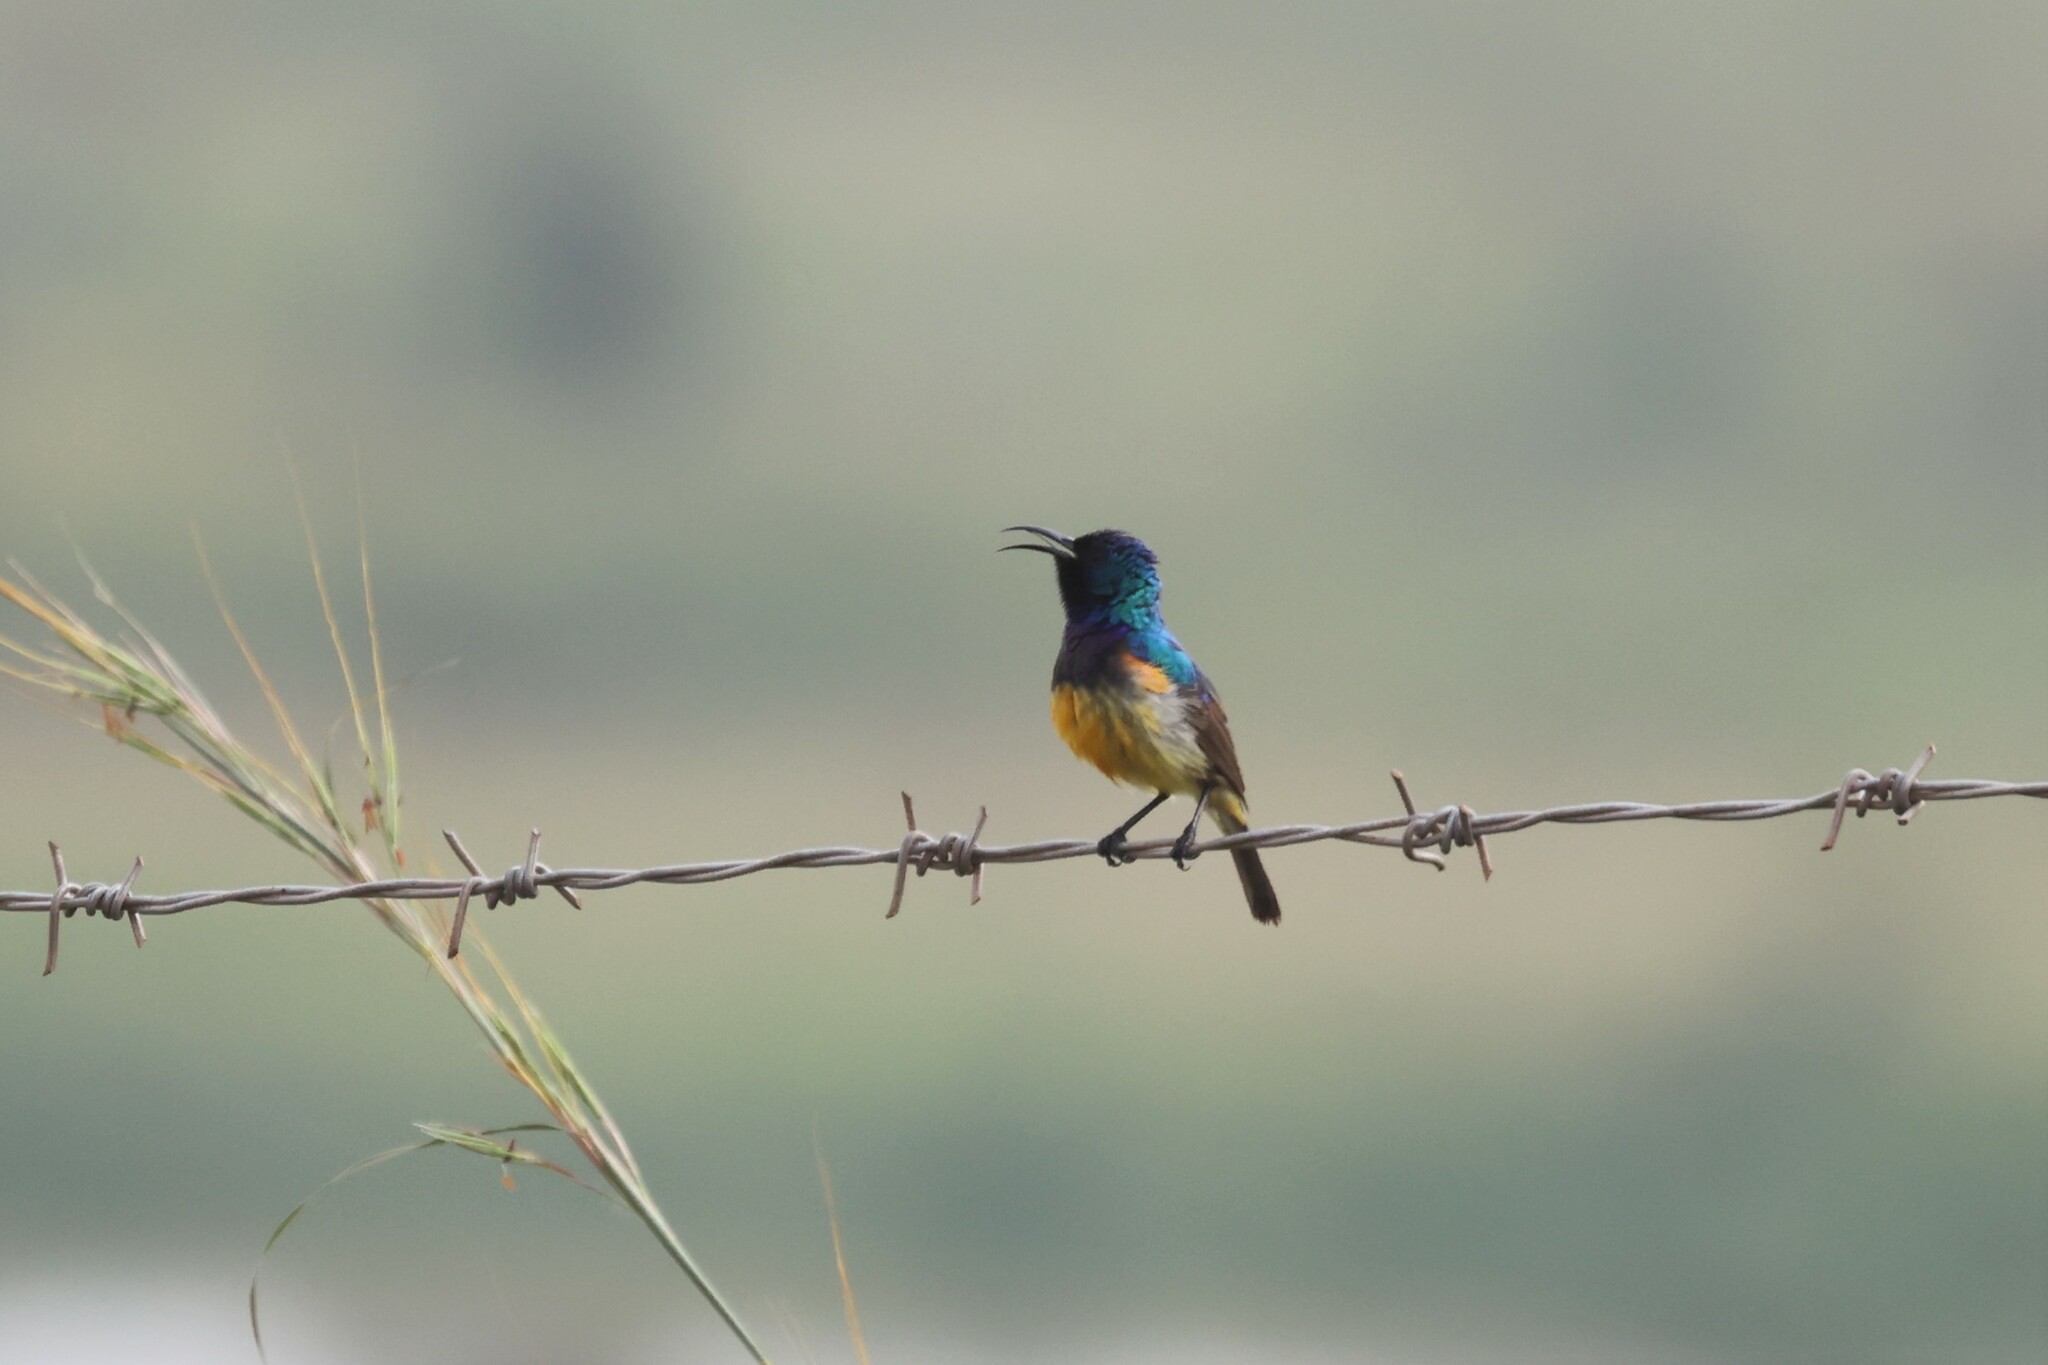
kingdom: Animalia
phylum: Chordata
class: Aves
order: Passeriformes
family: Nectariniidae
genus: Cinnyris
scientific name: Cinnyris venustus
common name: Variable sunbird
